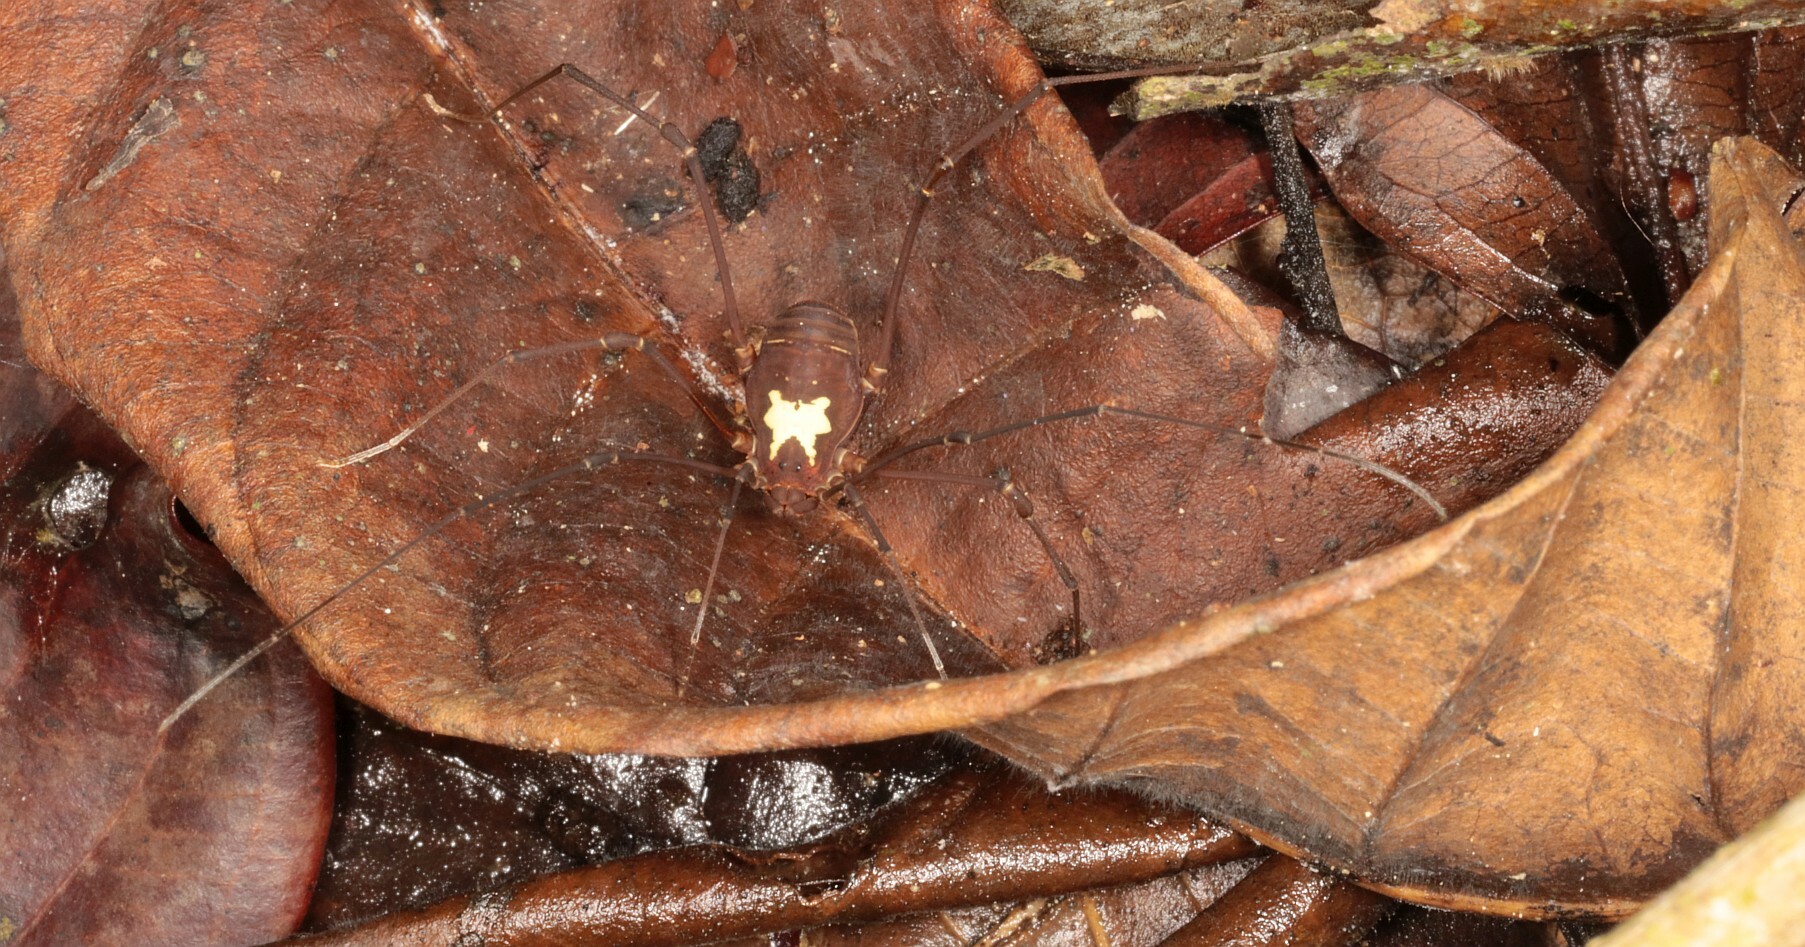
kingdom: Animalia
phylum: Arthropoda
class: Arachnida
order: Opiliones
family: Cosmetidae
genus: Vononana
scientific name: Vononana adrik
